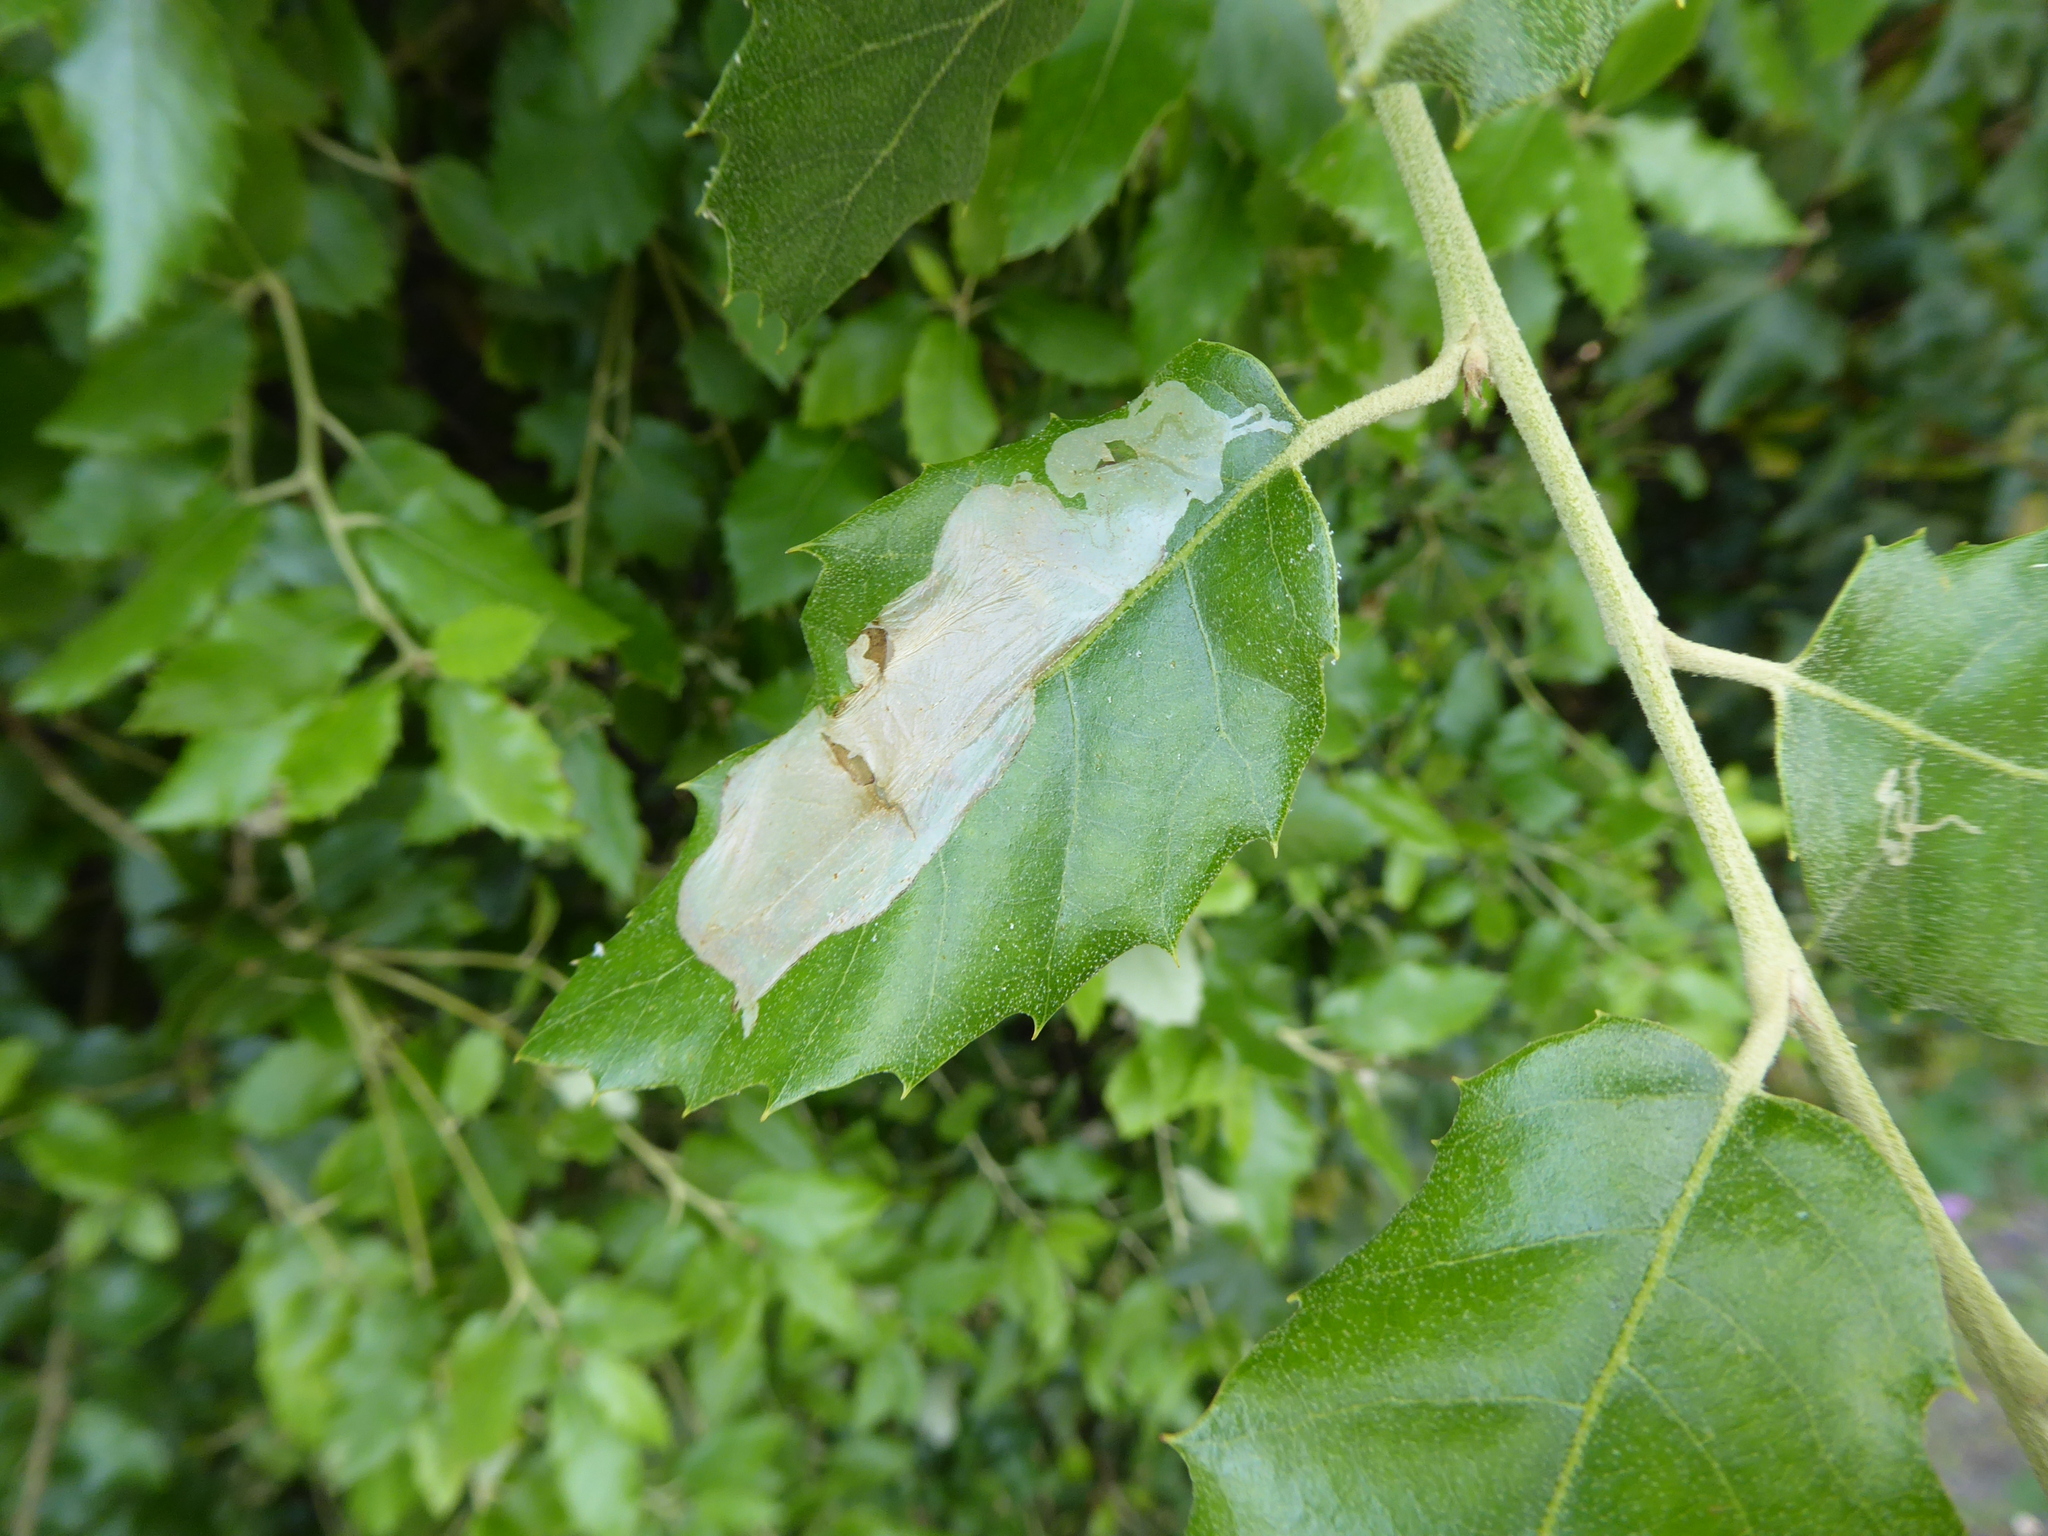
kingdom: Animalia
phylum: Arthropoda
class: Insecta
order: Lepidoptera
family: Gracillariidae
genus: Acrocercops
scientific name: Acrocercops brongniardella
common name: Brown oak slender
